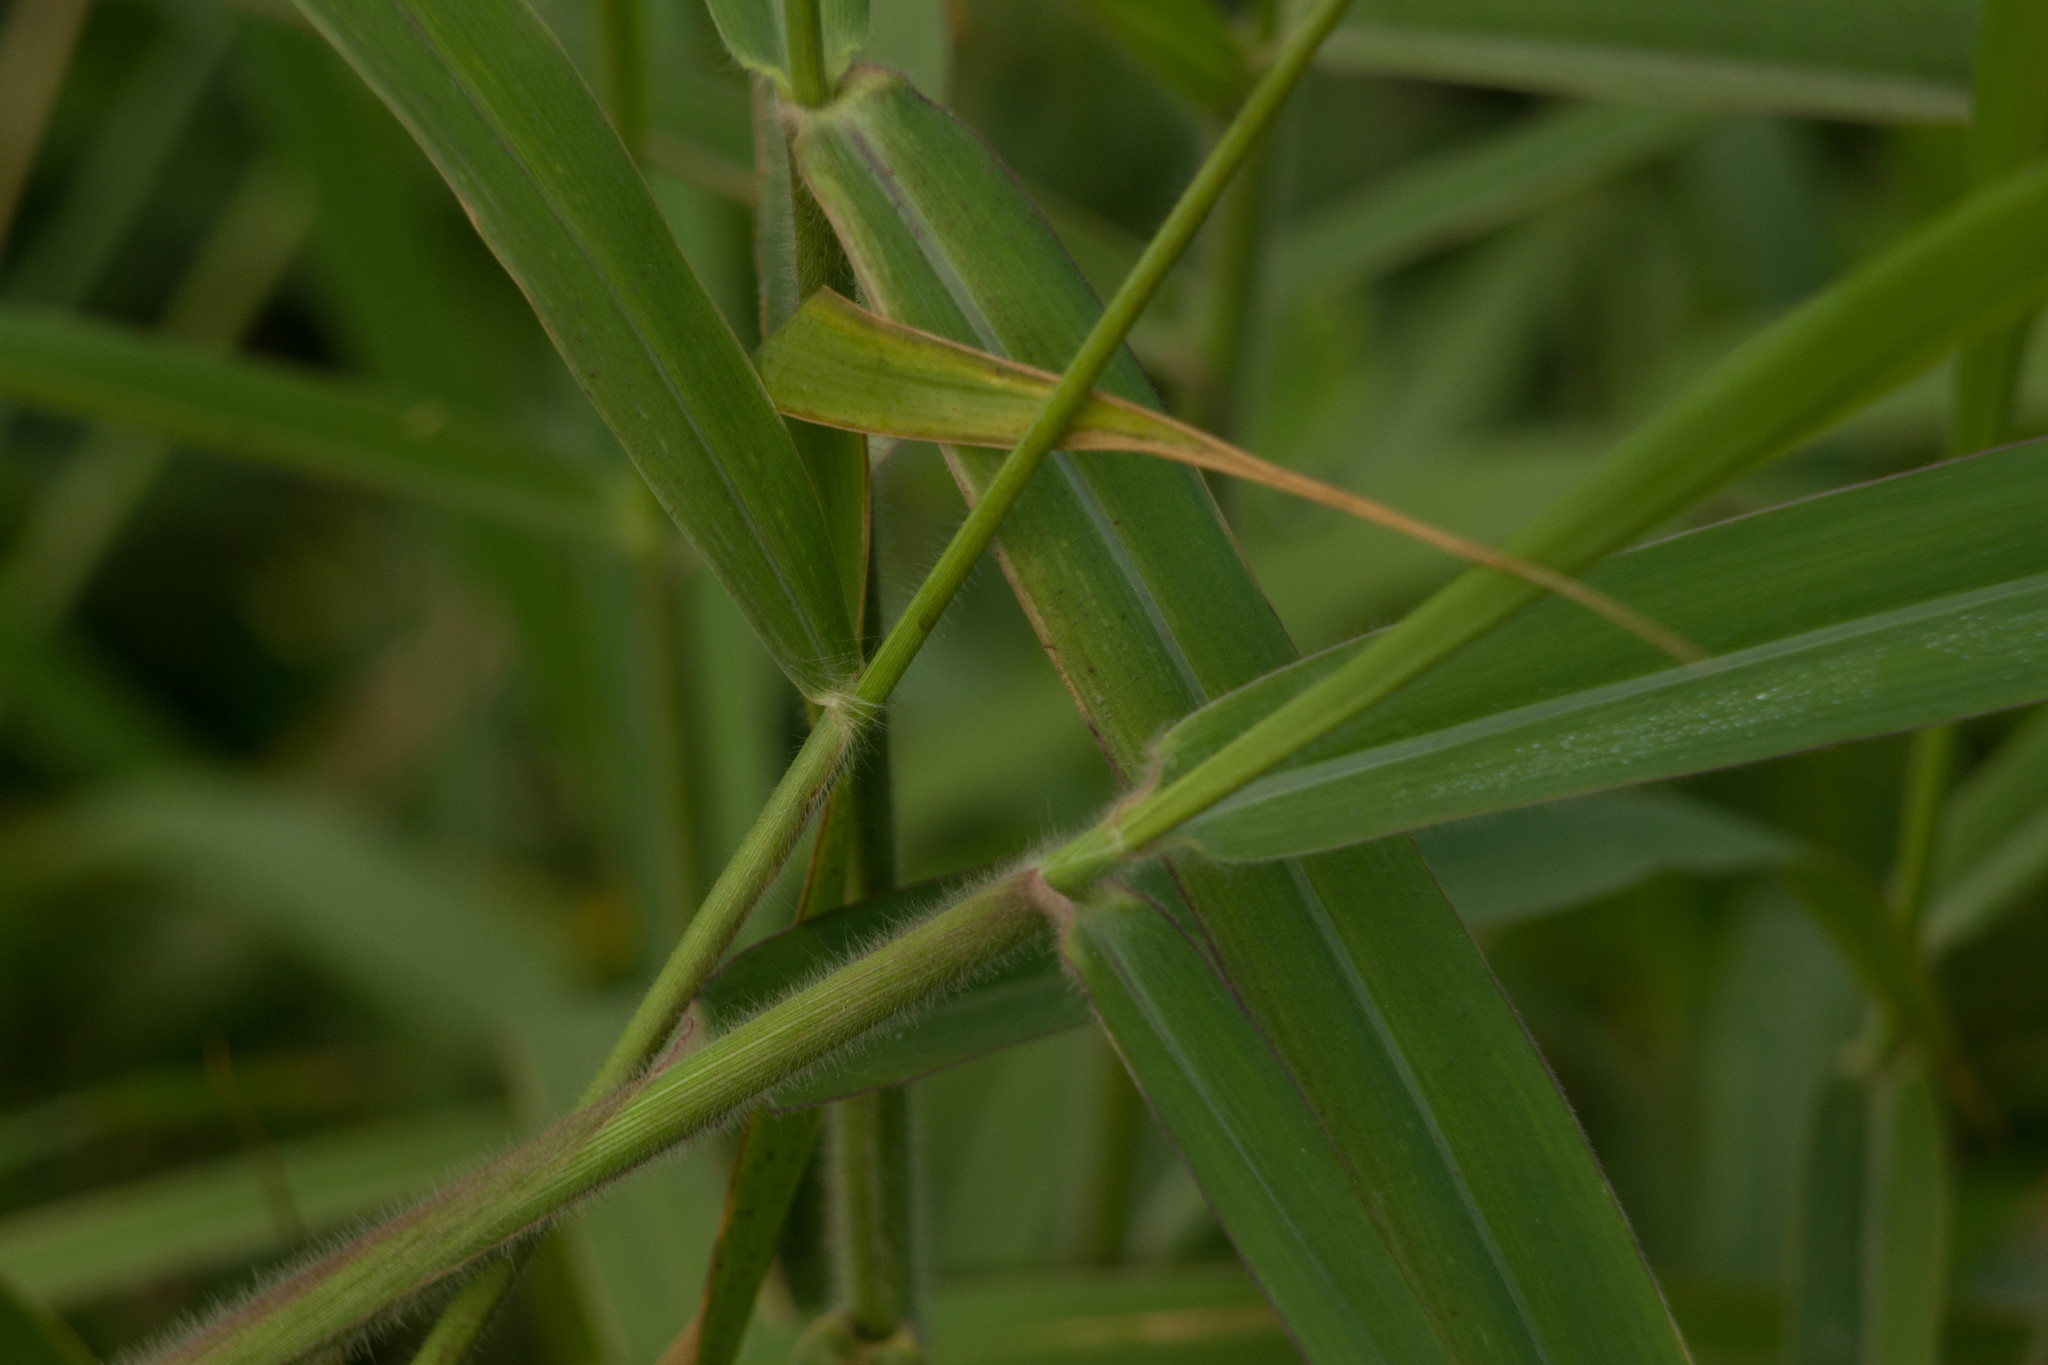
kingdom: Plantae
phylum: Tracheophyta
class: Liliopsida
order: Poales
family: Poaceae
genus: Megathyrsus
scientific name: Megathyrsus maximus
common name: Guineagrass
